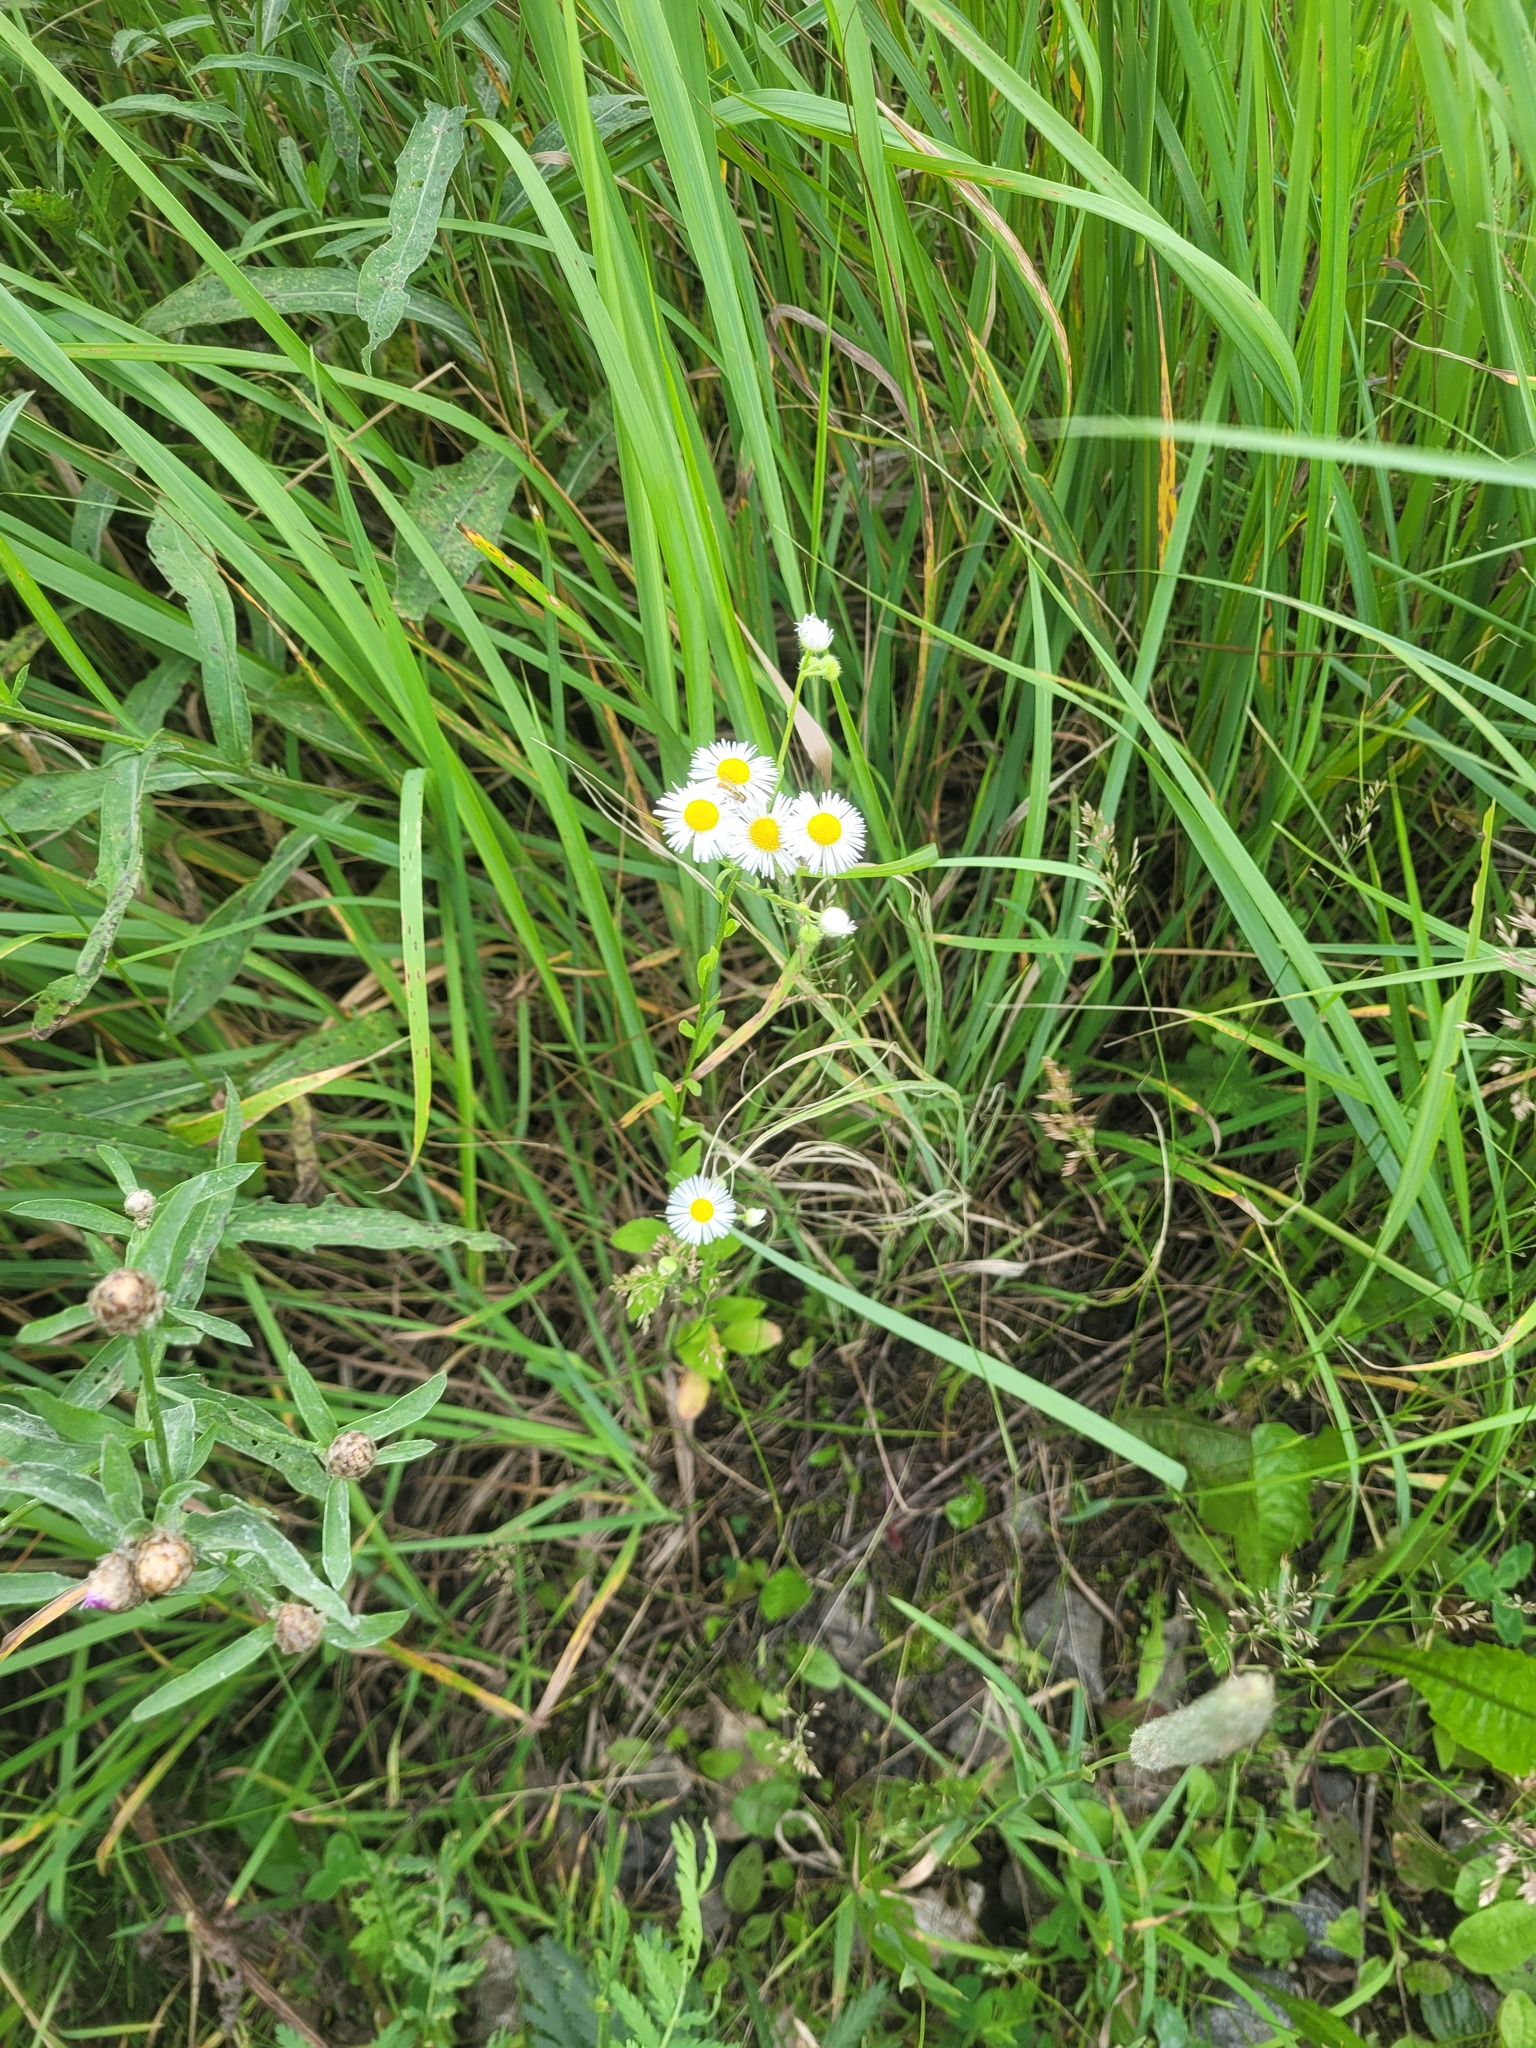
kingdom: Plantae
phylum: Tracheophyta
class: Magnoliopsida
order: Asterales
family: Asteraceae
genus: Erigeron
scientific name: Erigeron annuus
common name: Tall fleabane
